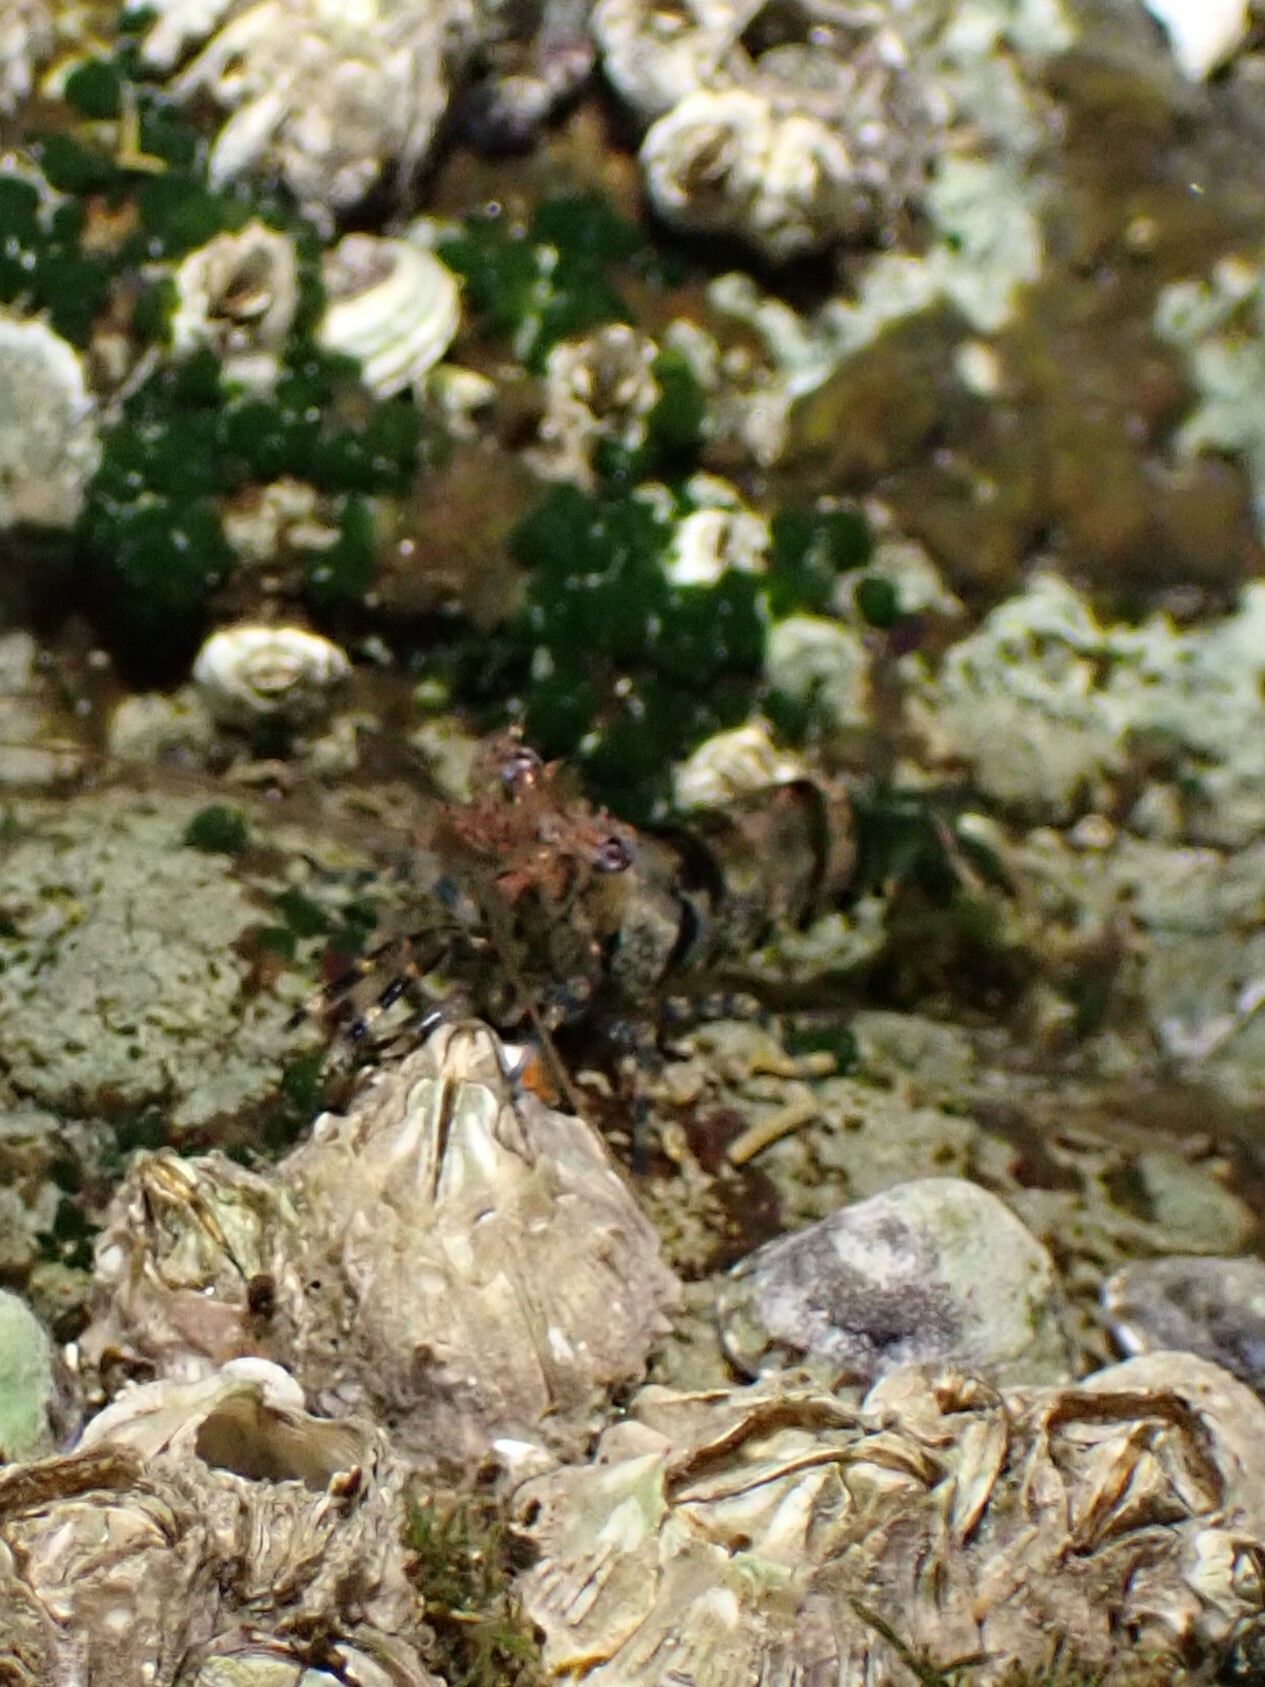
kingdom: Animalia
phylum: Arthropoda
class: Malacostraca
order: Decapoda
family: Thoridae
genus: Heptacarpus
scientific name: Heptacarpus brevirostris
